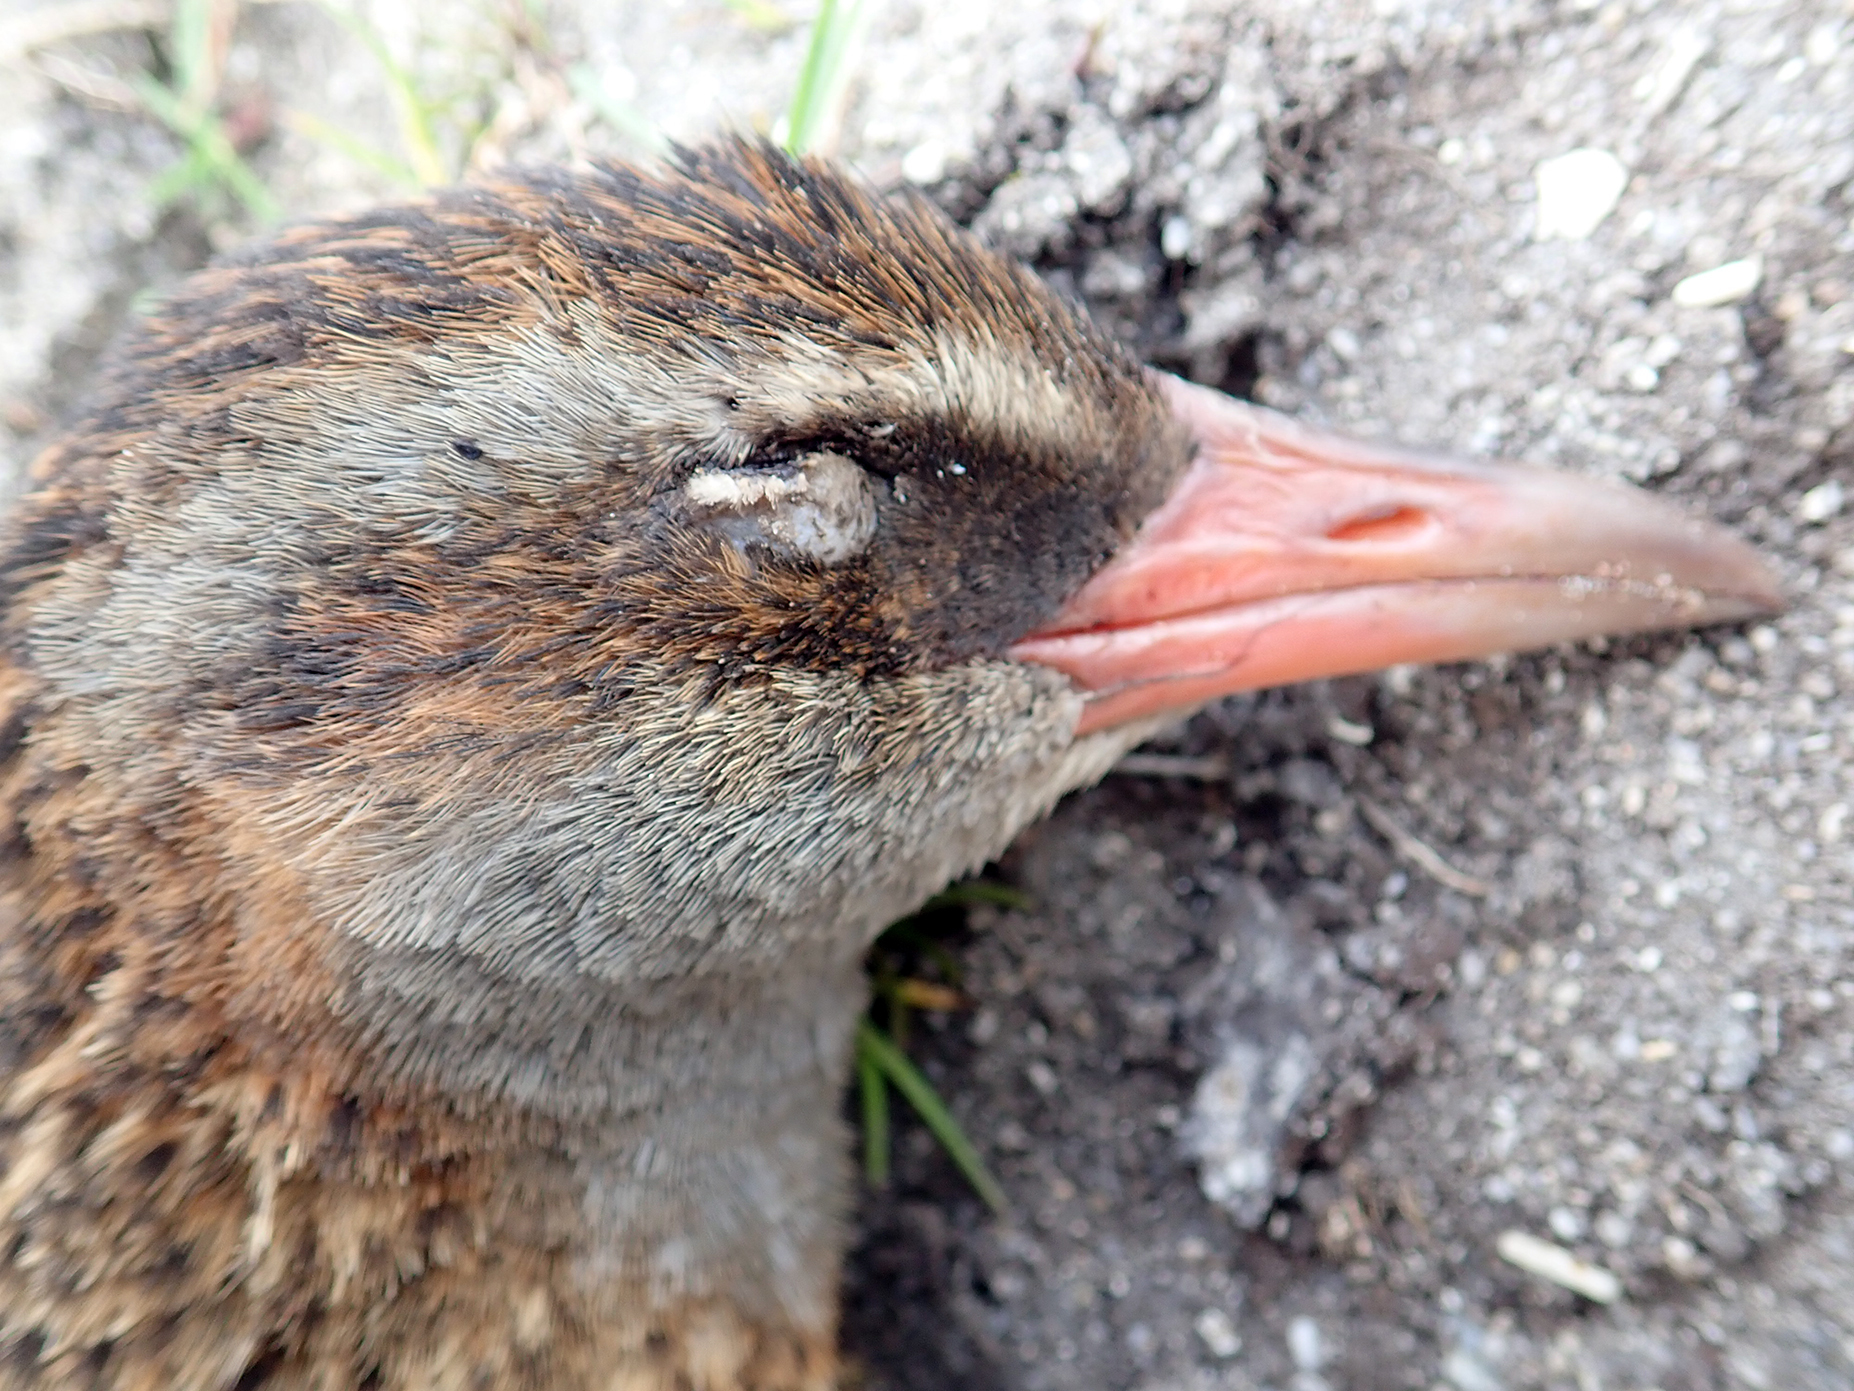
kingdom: Animalia
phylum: Chordata
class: Aves
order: Gruiformes
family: Rallidae
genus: Gallirallus
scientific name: Gallirallus australis
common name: Weka
